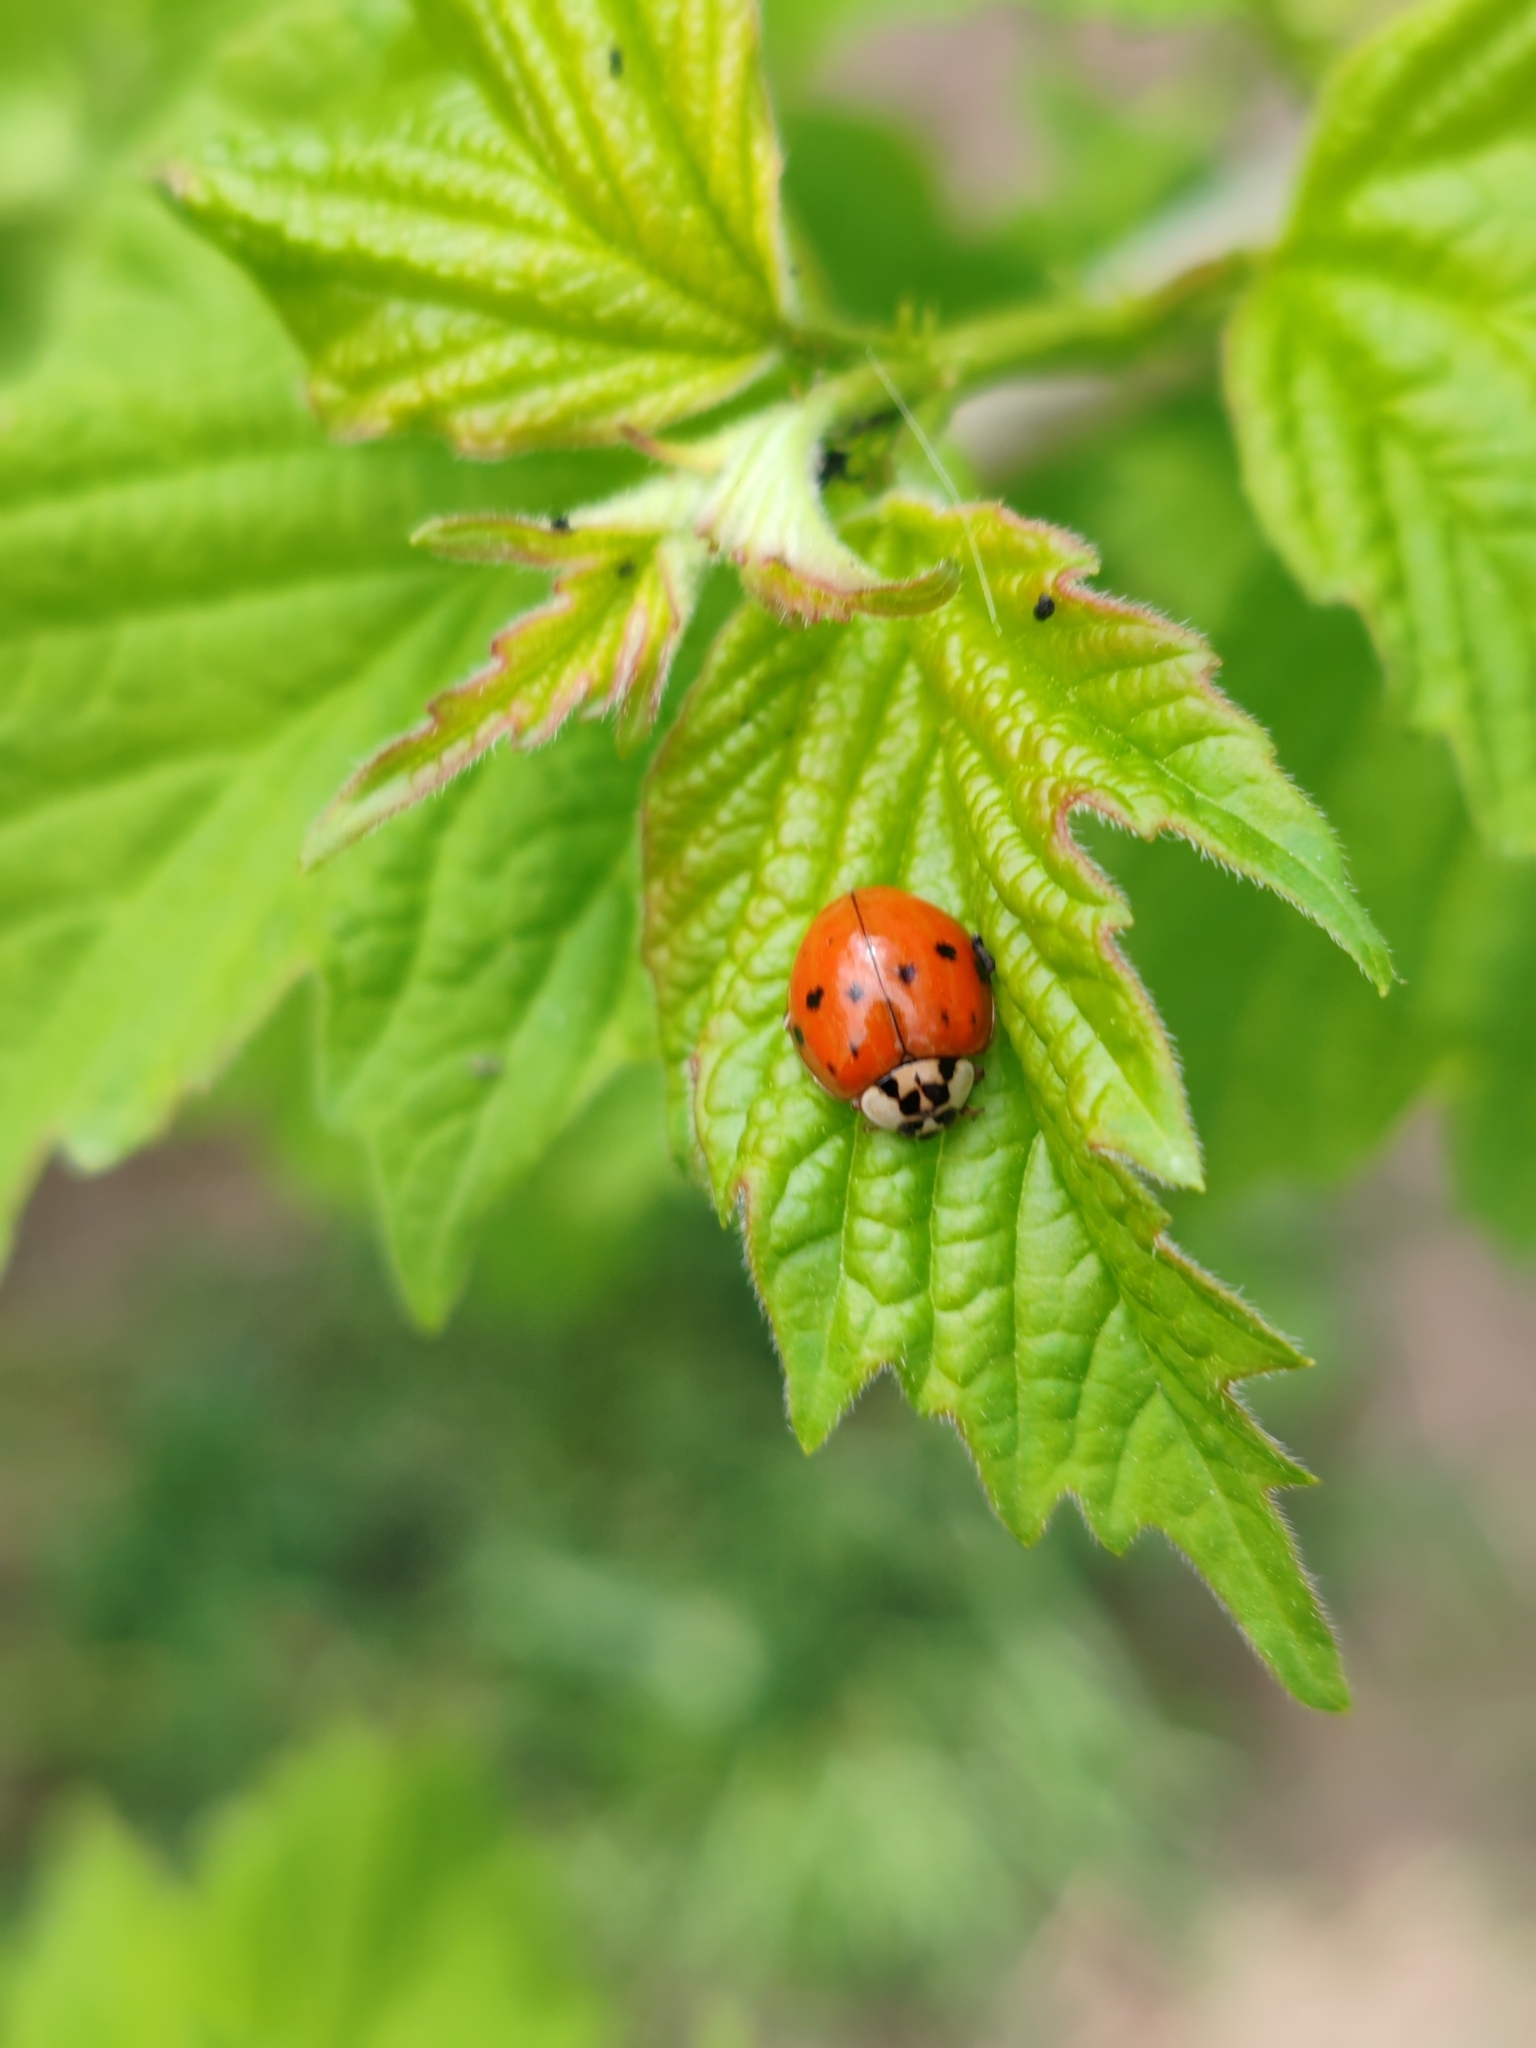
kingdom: Animalia
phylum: Arthropoda
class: Insecta
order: Coleoptera
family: Coccinellidae
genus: Harmonia
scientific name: Harmonia axyridis
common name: Harlequin ladybird
